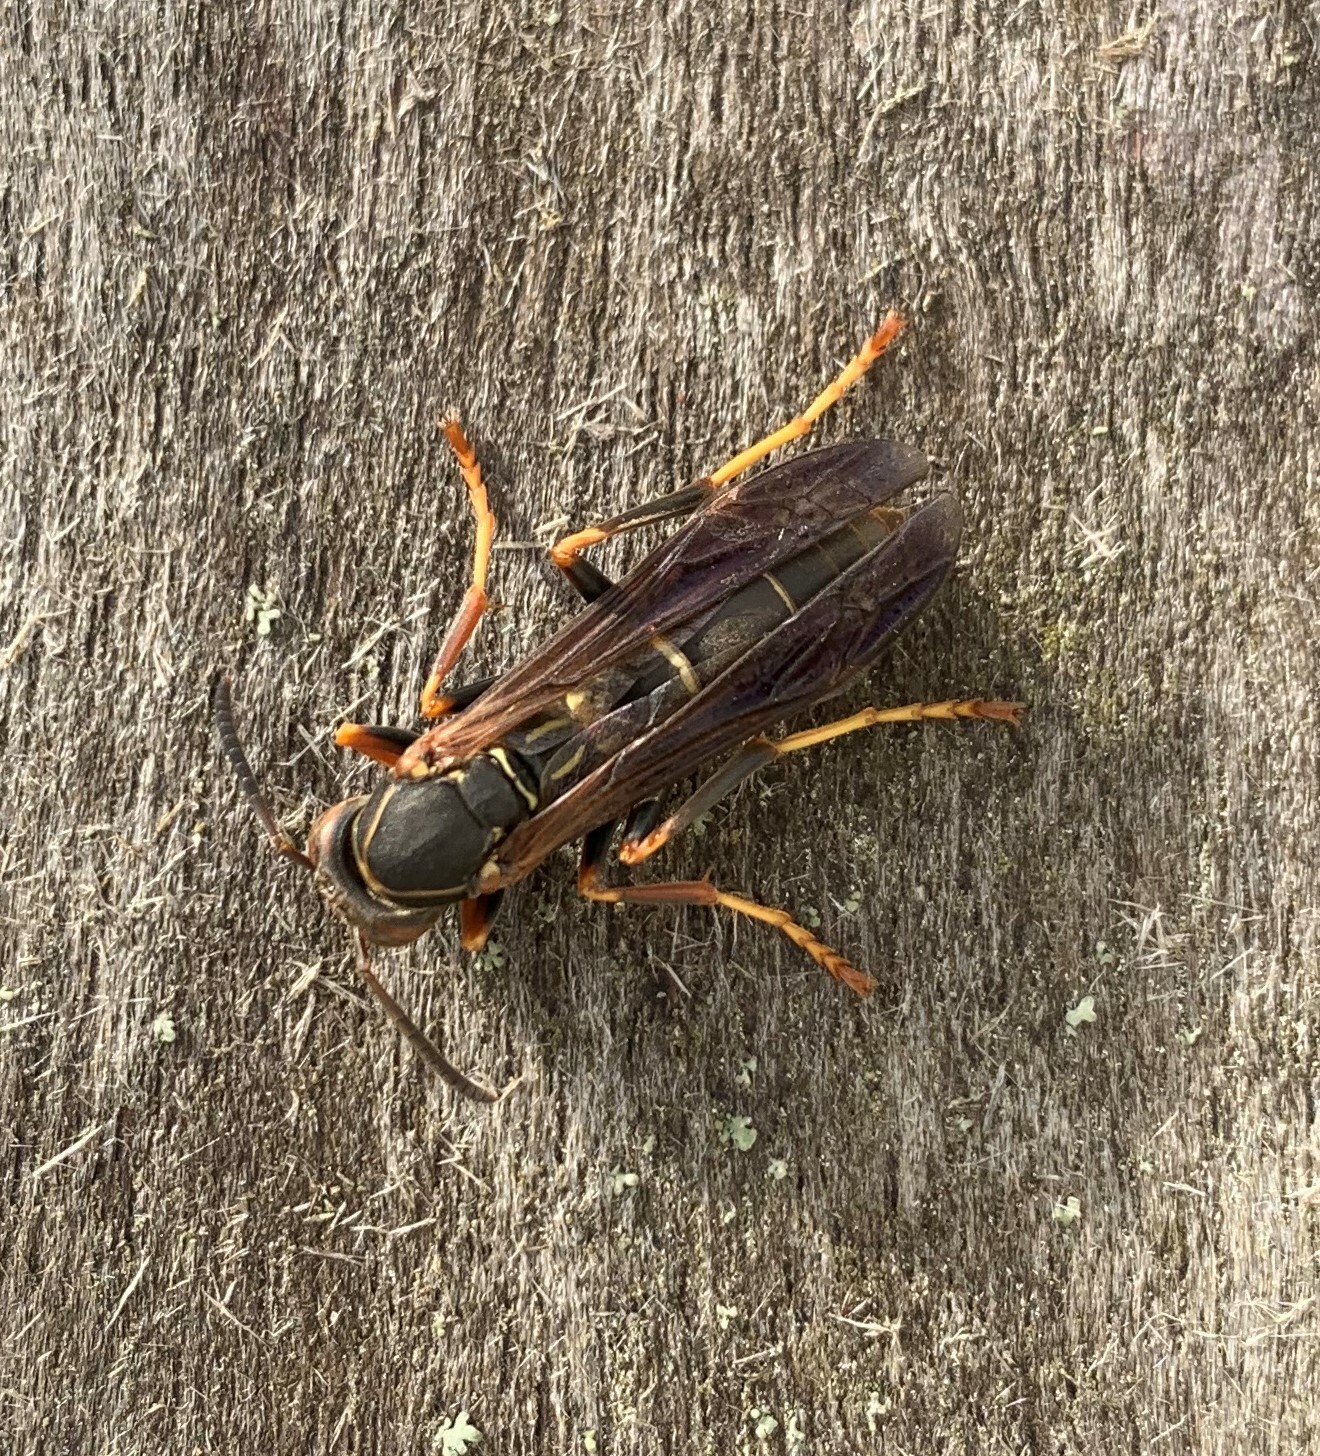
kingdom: Animalia
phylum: Arthropoda
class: Insecta
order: Hymenoptera
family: Eumenidae
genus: Polistes
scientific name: Polistes fuscatus
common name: Dark paper wasp
